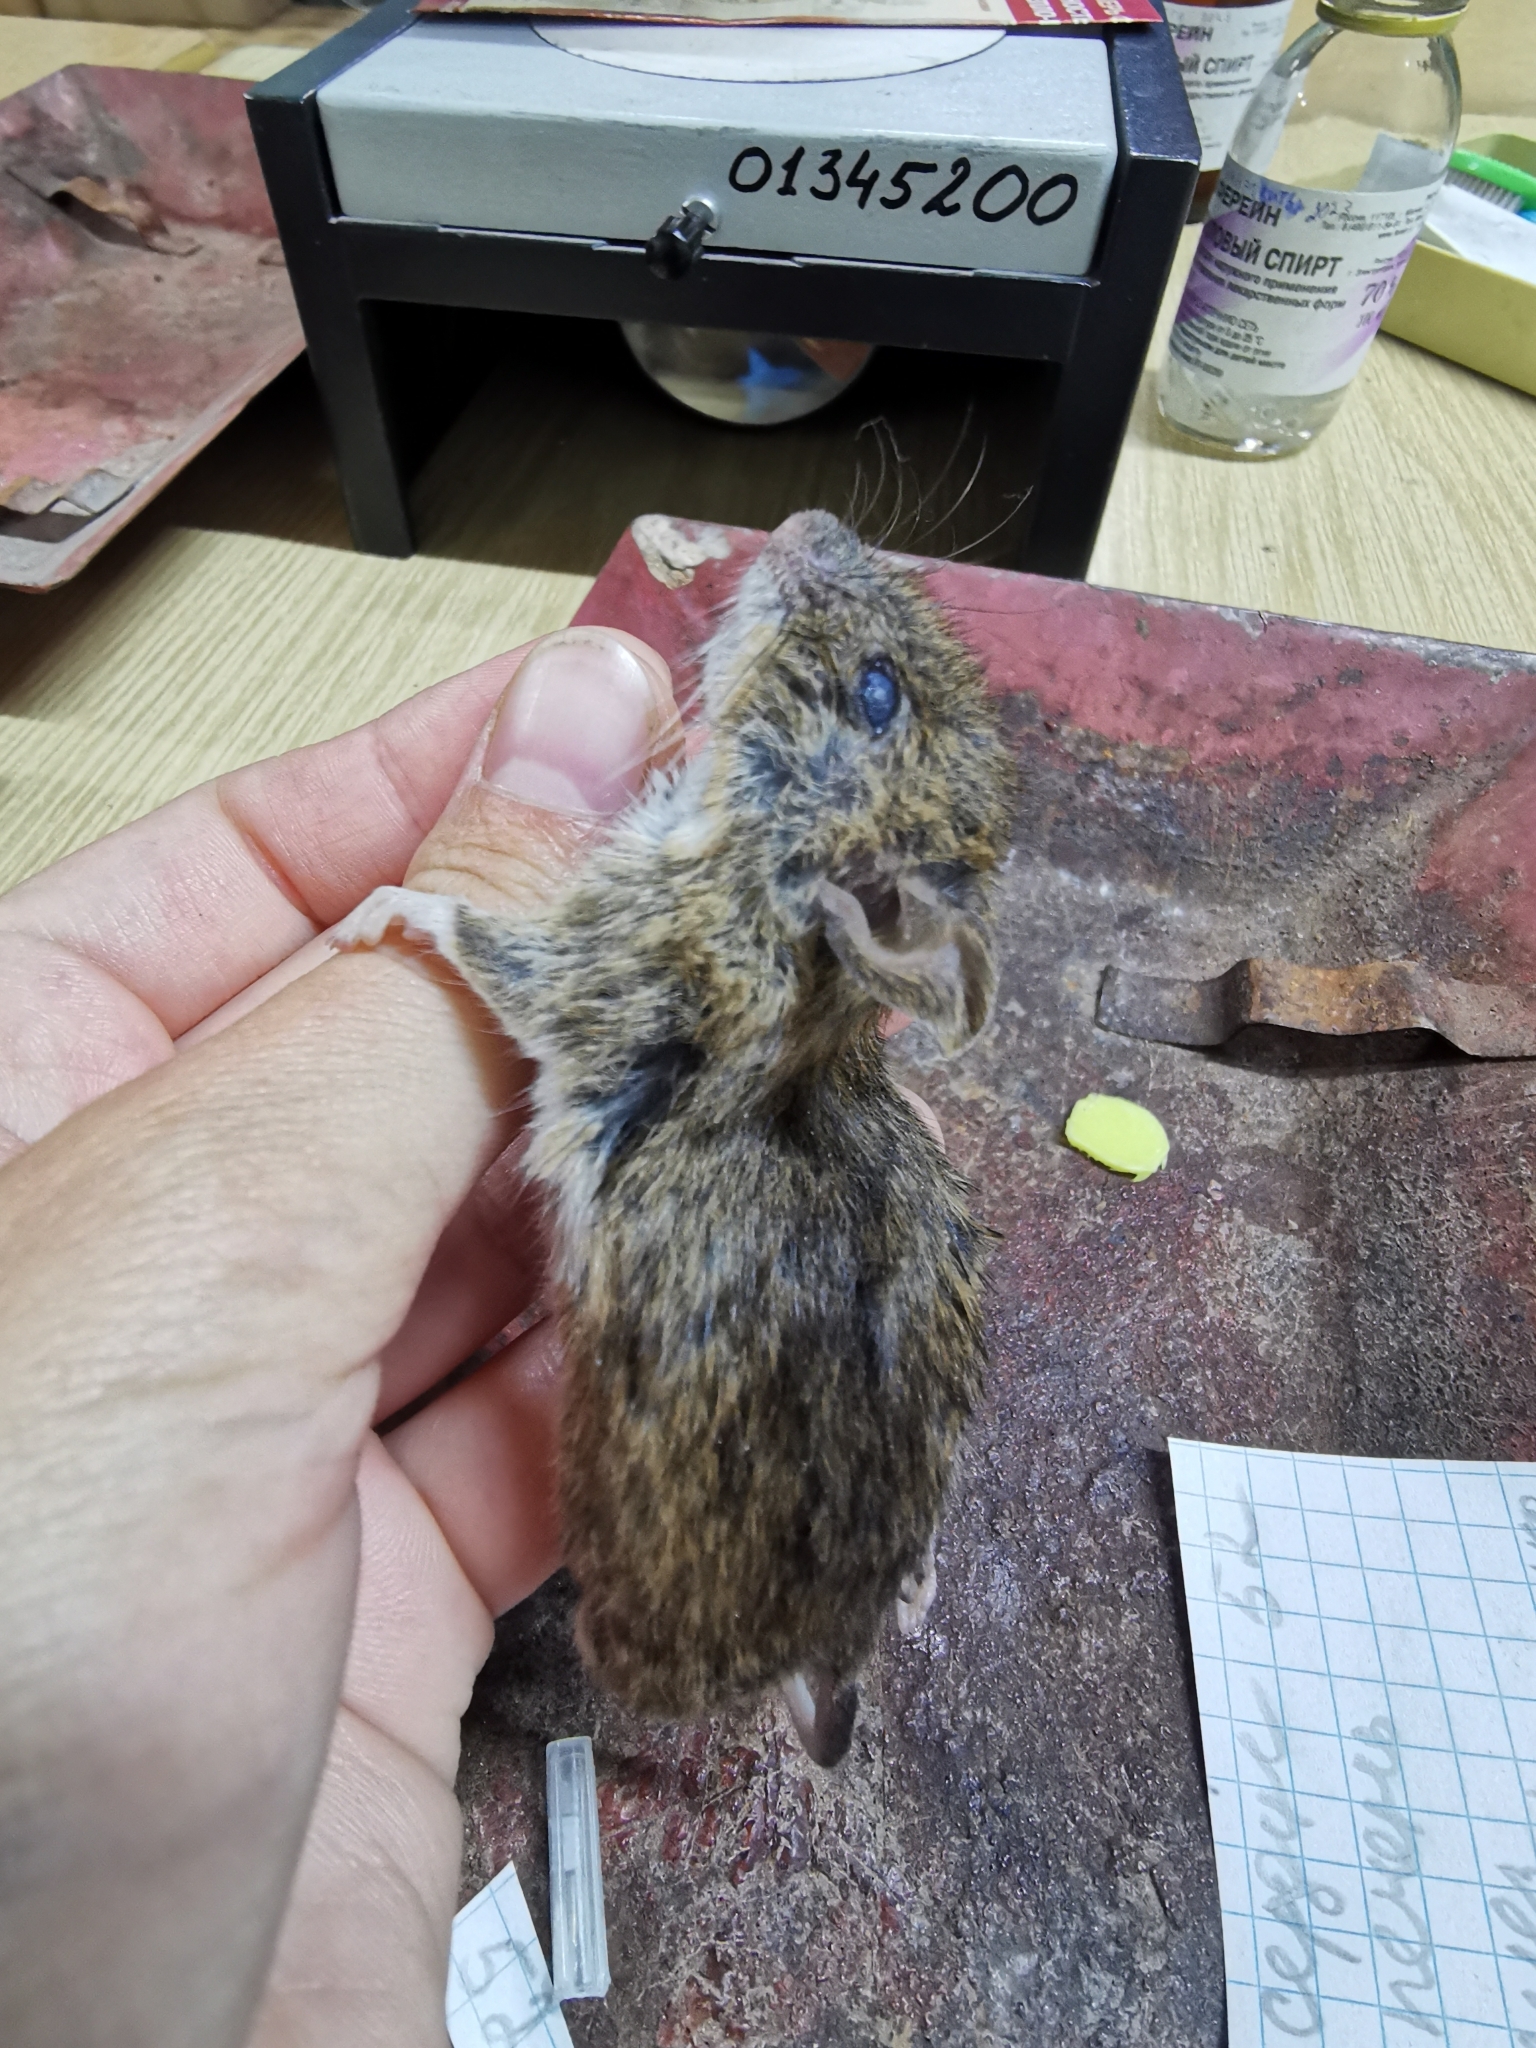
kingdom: Animalia
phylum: Chordata
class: Mammalia
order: Rodentia
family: Muridae
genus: Apodemus
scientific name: Apodemus uralensis
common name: Herb field mouse
